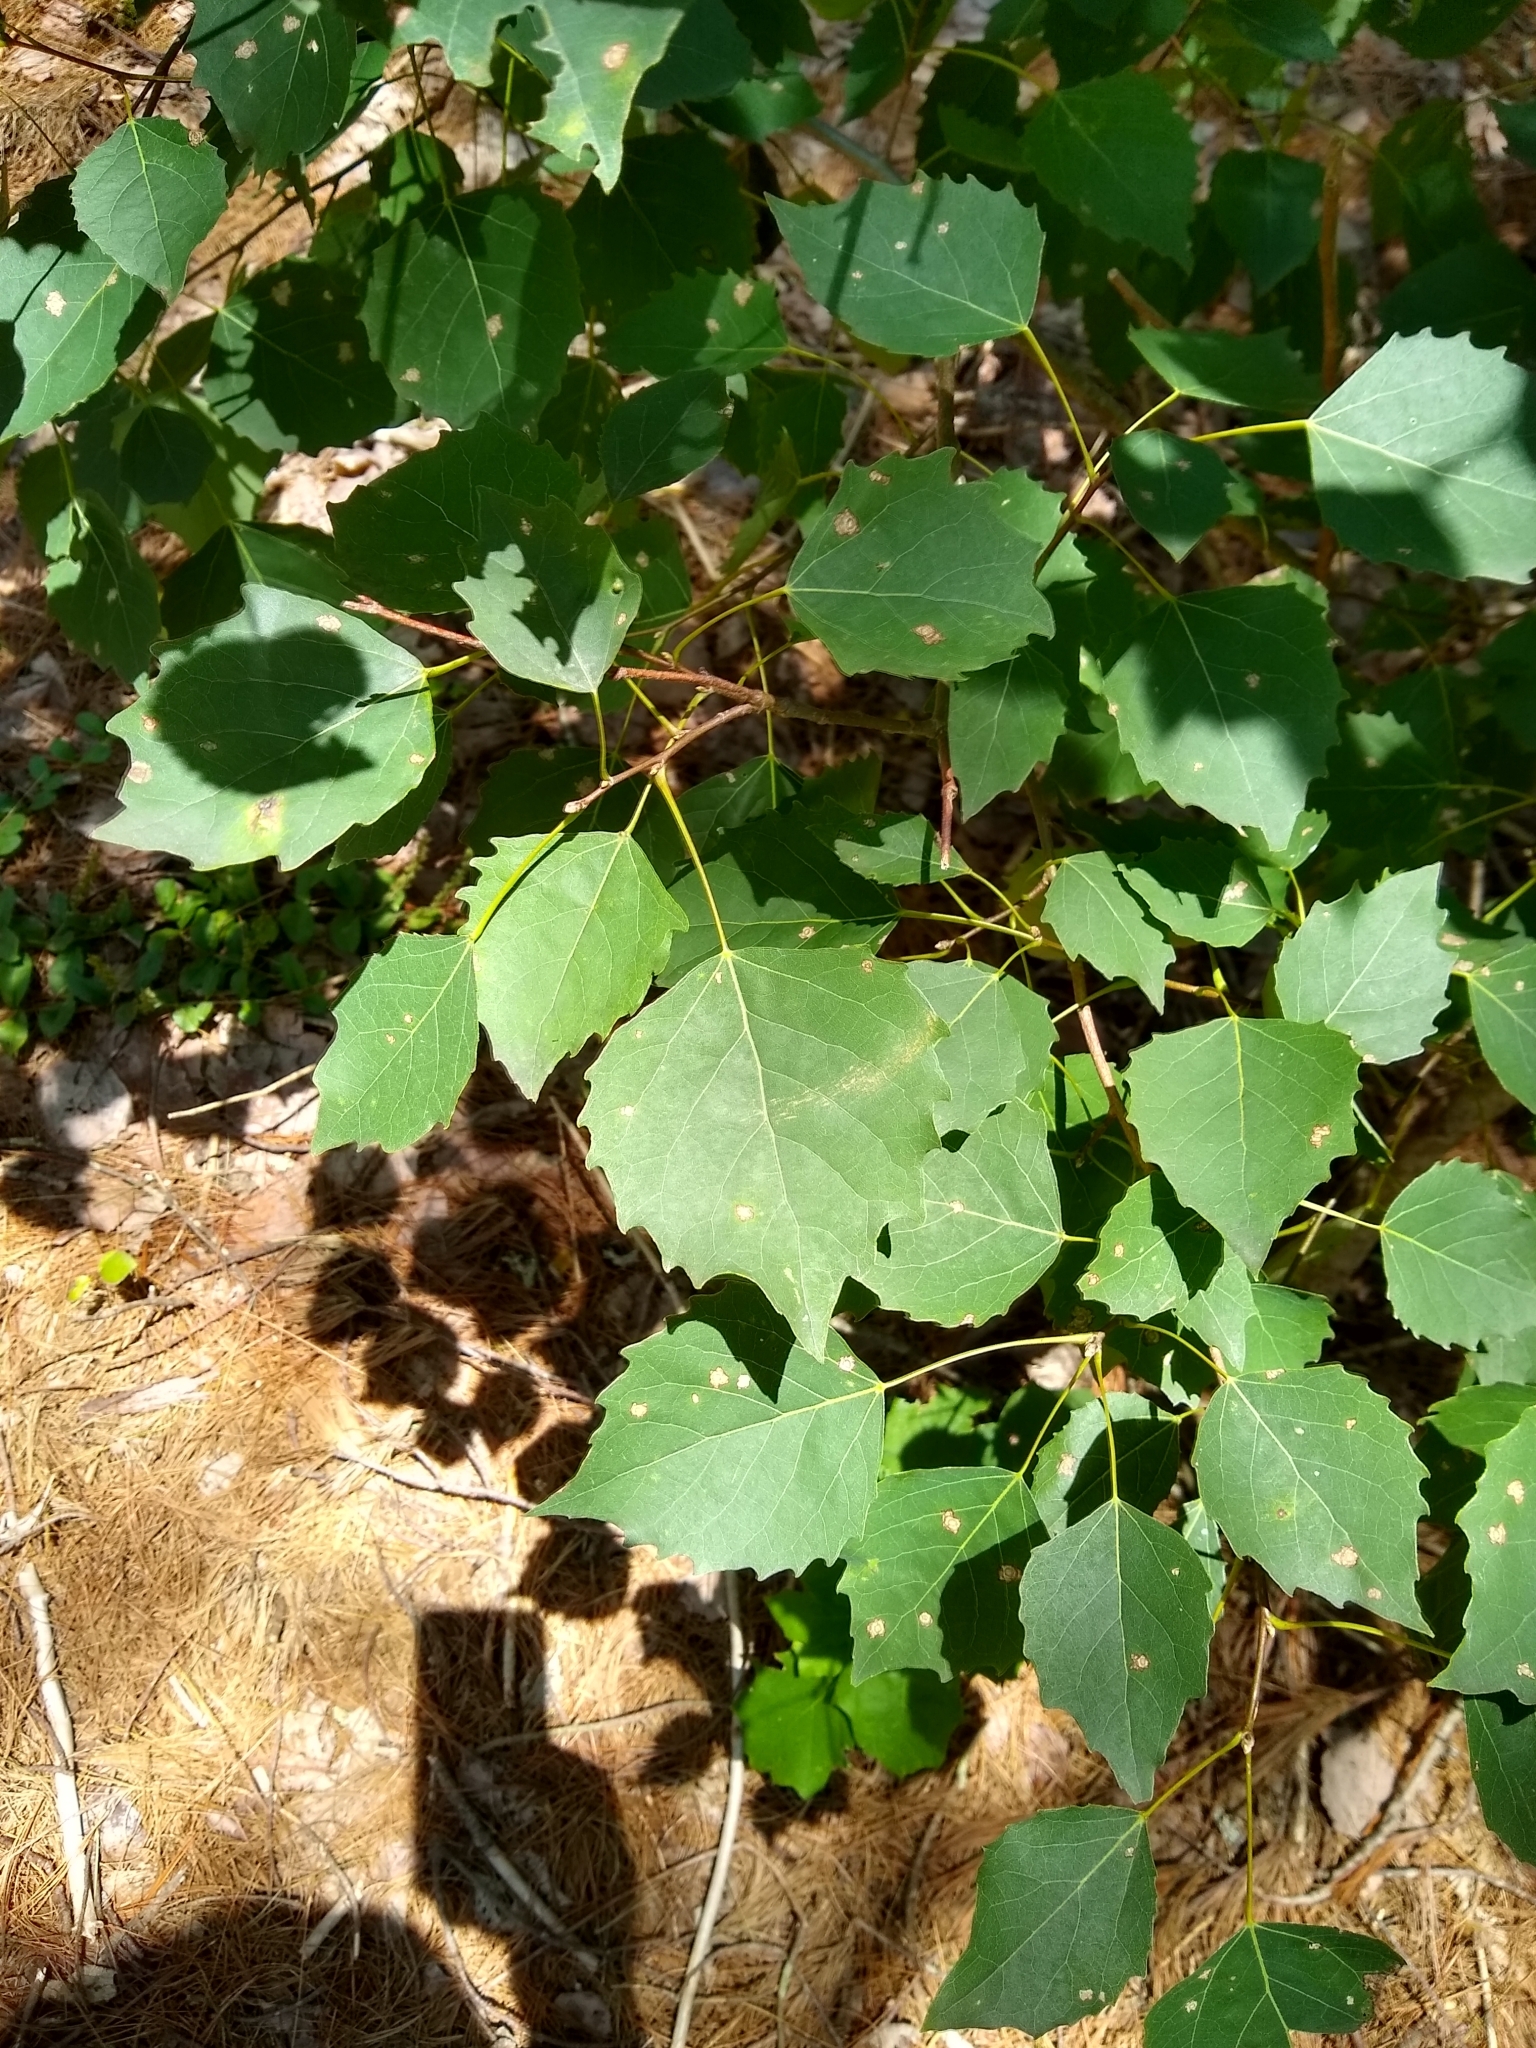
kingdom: Plantae
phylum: Tracheophyta
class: Magnoliopsida
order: Malpighiales
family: Salicaceae
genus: Populus
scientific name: Populus grandidentata
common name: Bigtooth aspen
